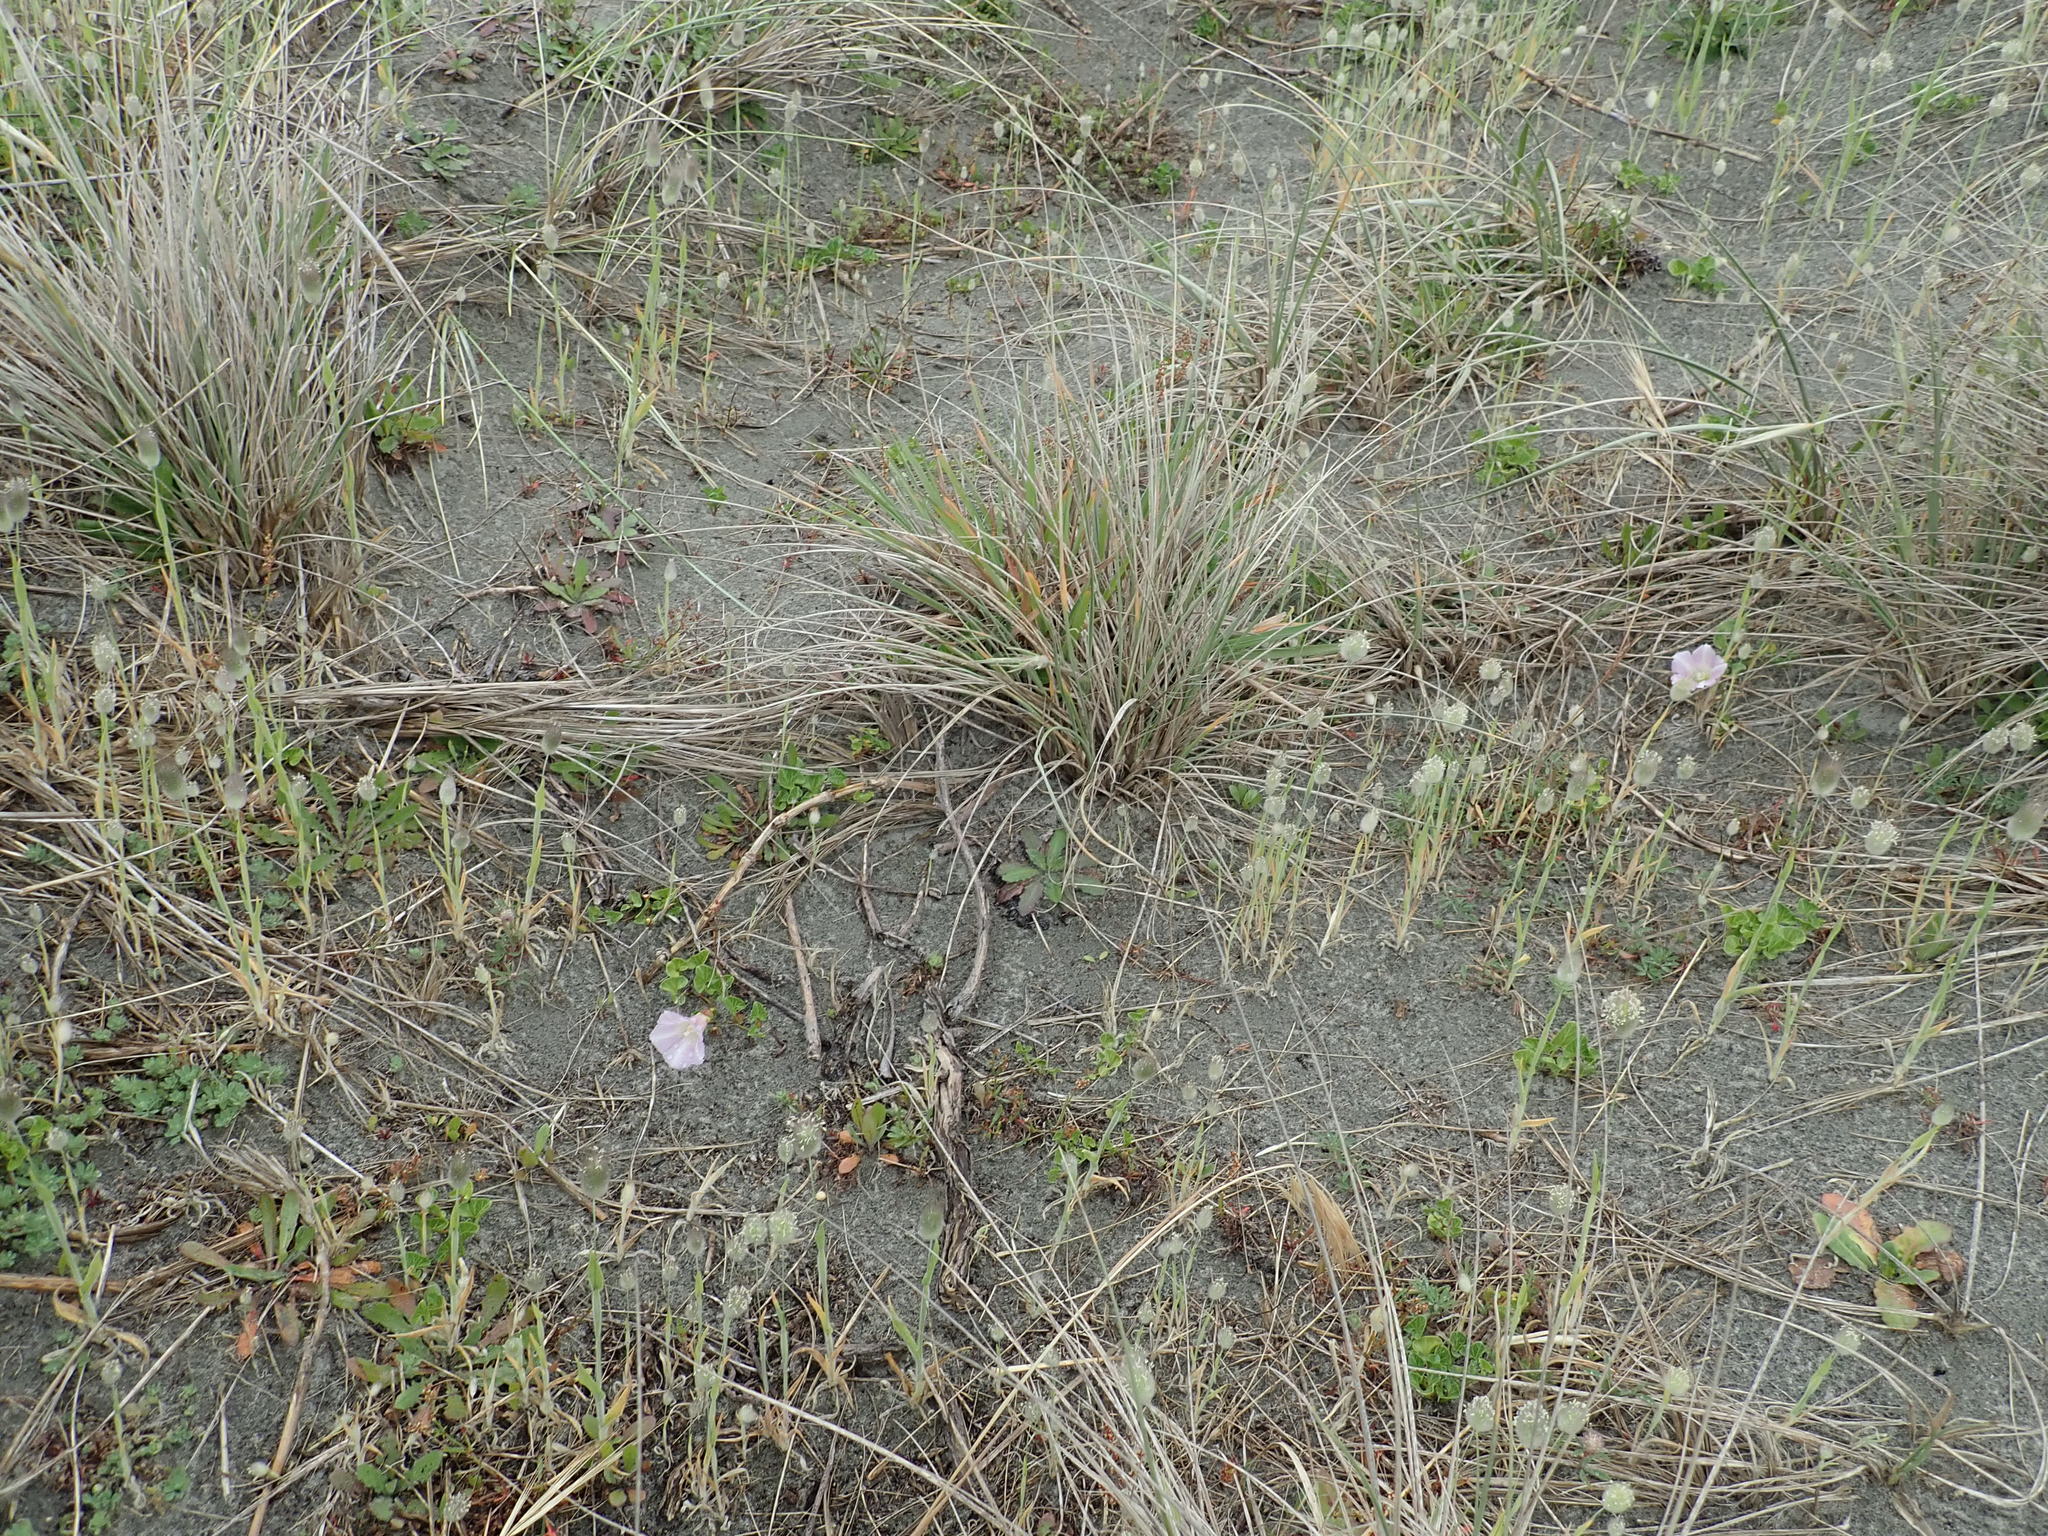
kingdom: Plantae
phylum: Tracheophyta
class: Magnoliopsida
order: Solanales
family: Convolvulaceae
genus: Calystegia
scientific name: Calystegia soldanella
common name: Sea bindweed
